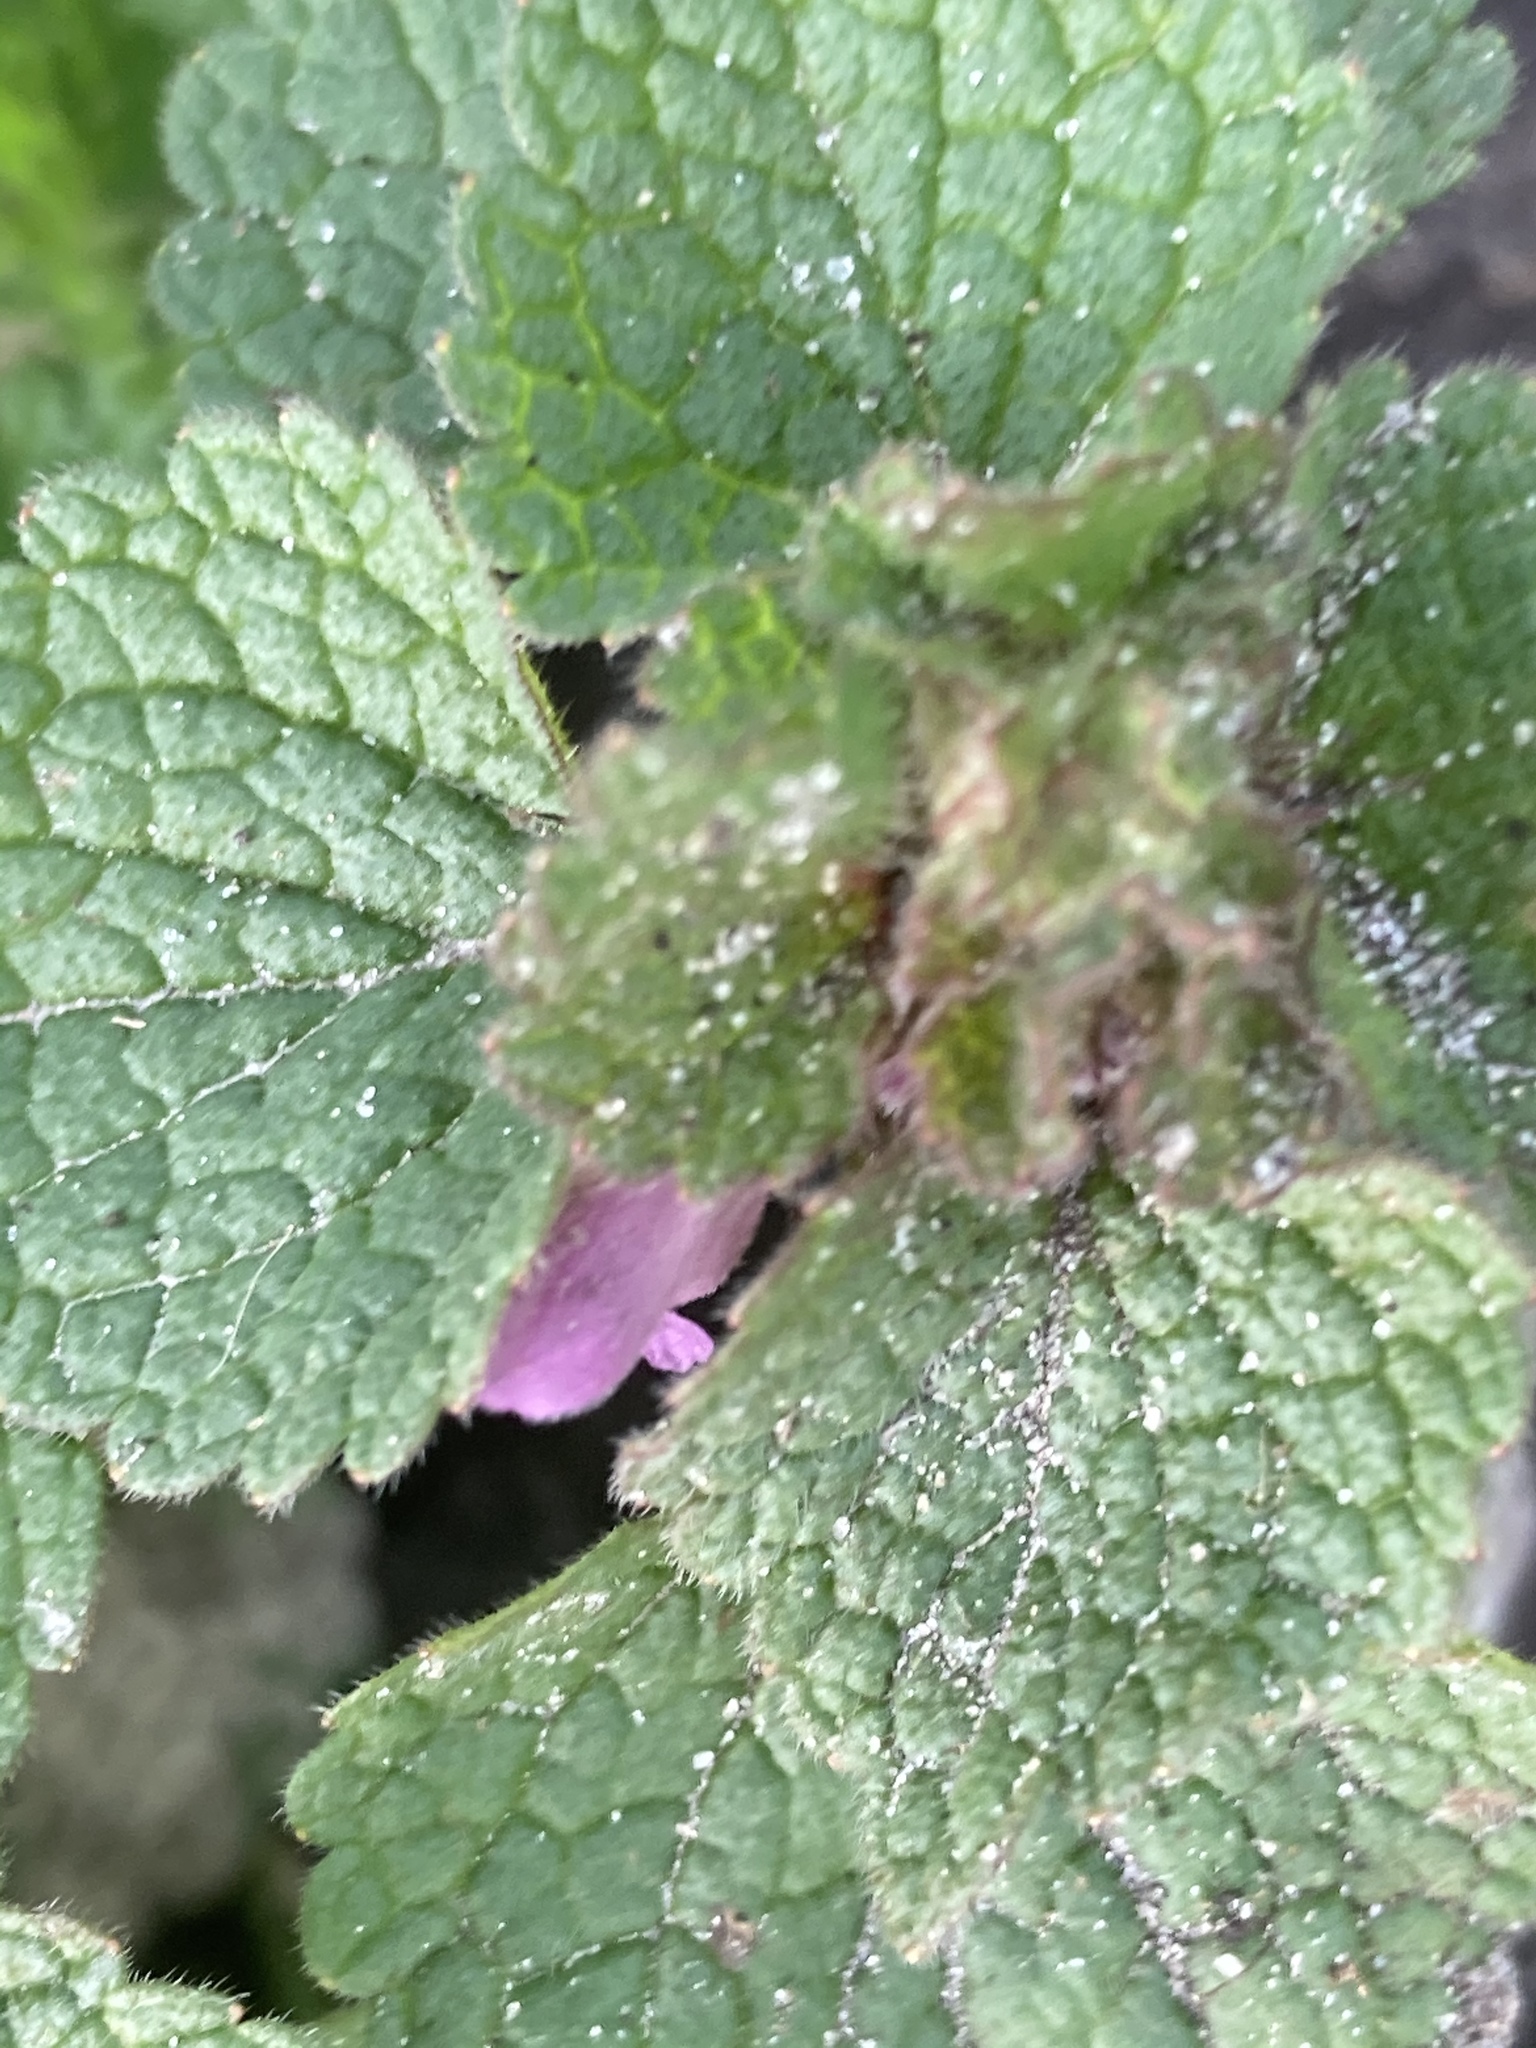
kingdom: Plantae
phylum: Tracheophyta
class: Magnoliopsida
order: Lamiales
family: Lamiaceae
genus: Lamium
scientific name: Lamium purpureum
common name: Red dead-nettle
